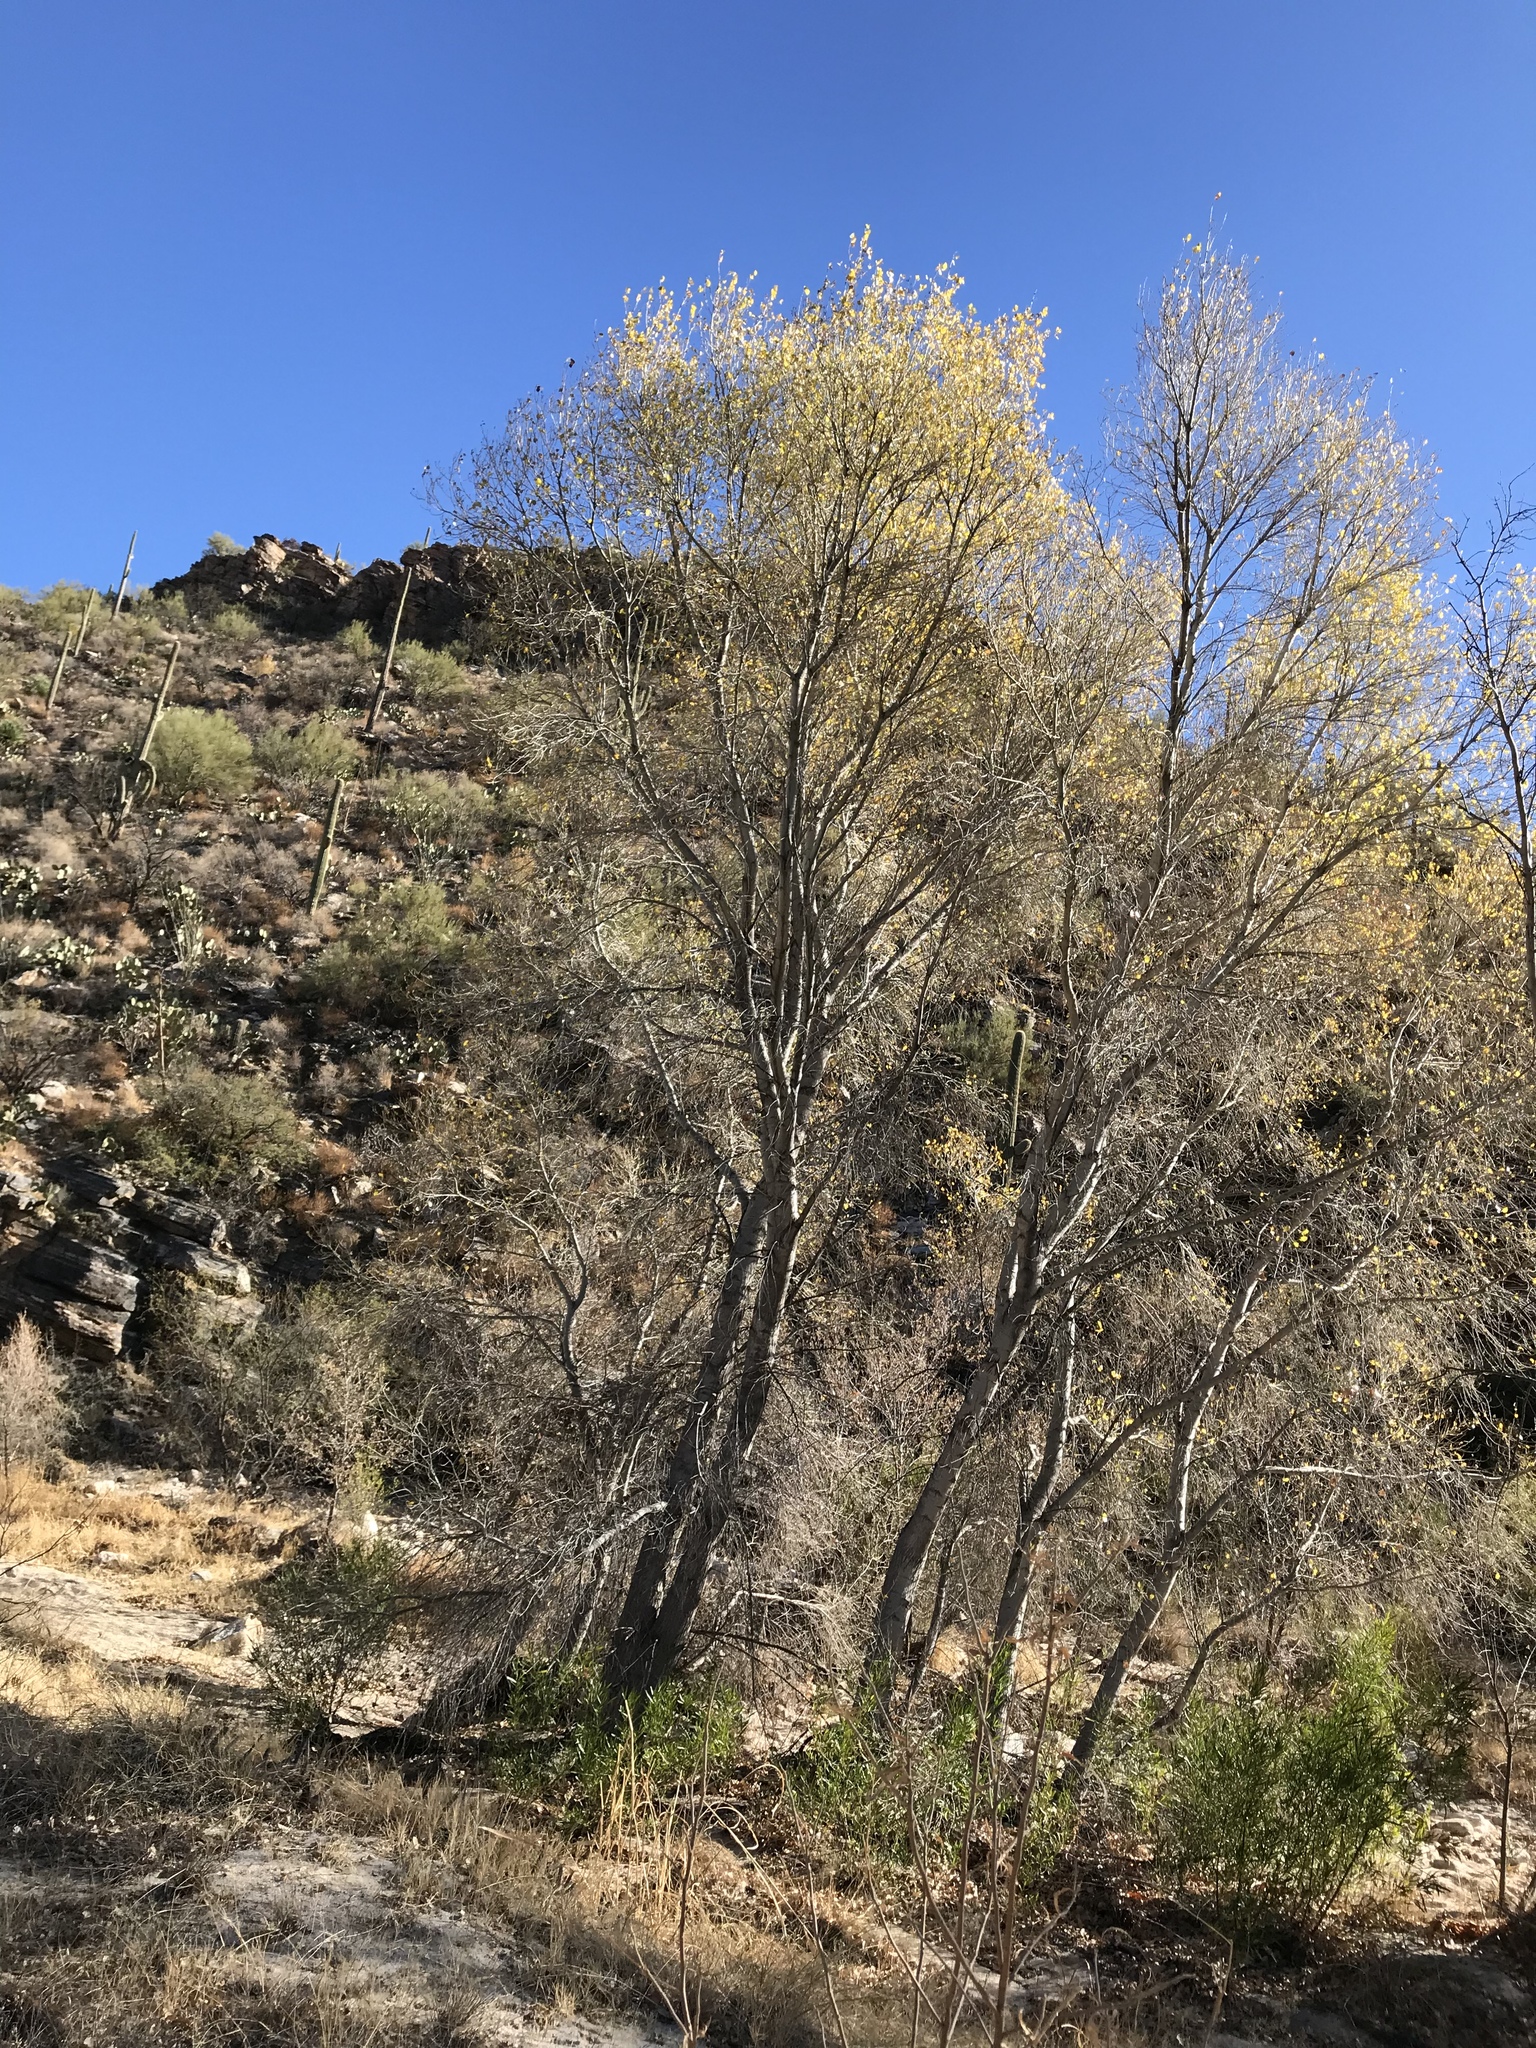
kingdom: Plantae
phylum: Tracheophyta
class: Magnoliopsida
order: Malpighiales
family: Salicaceae
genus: Populus
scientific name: Populus fremontii
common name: Fremont's cottonwood
